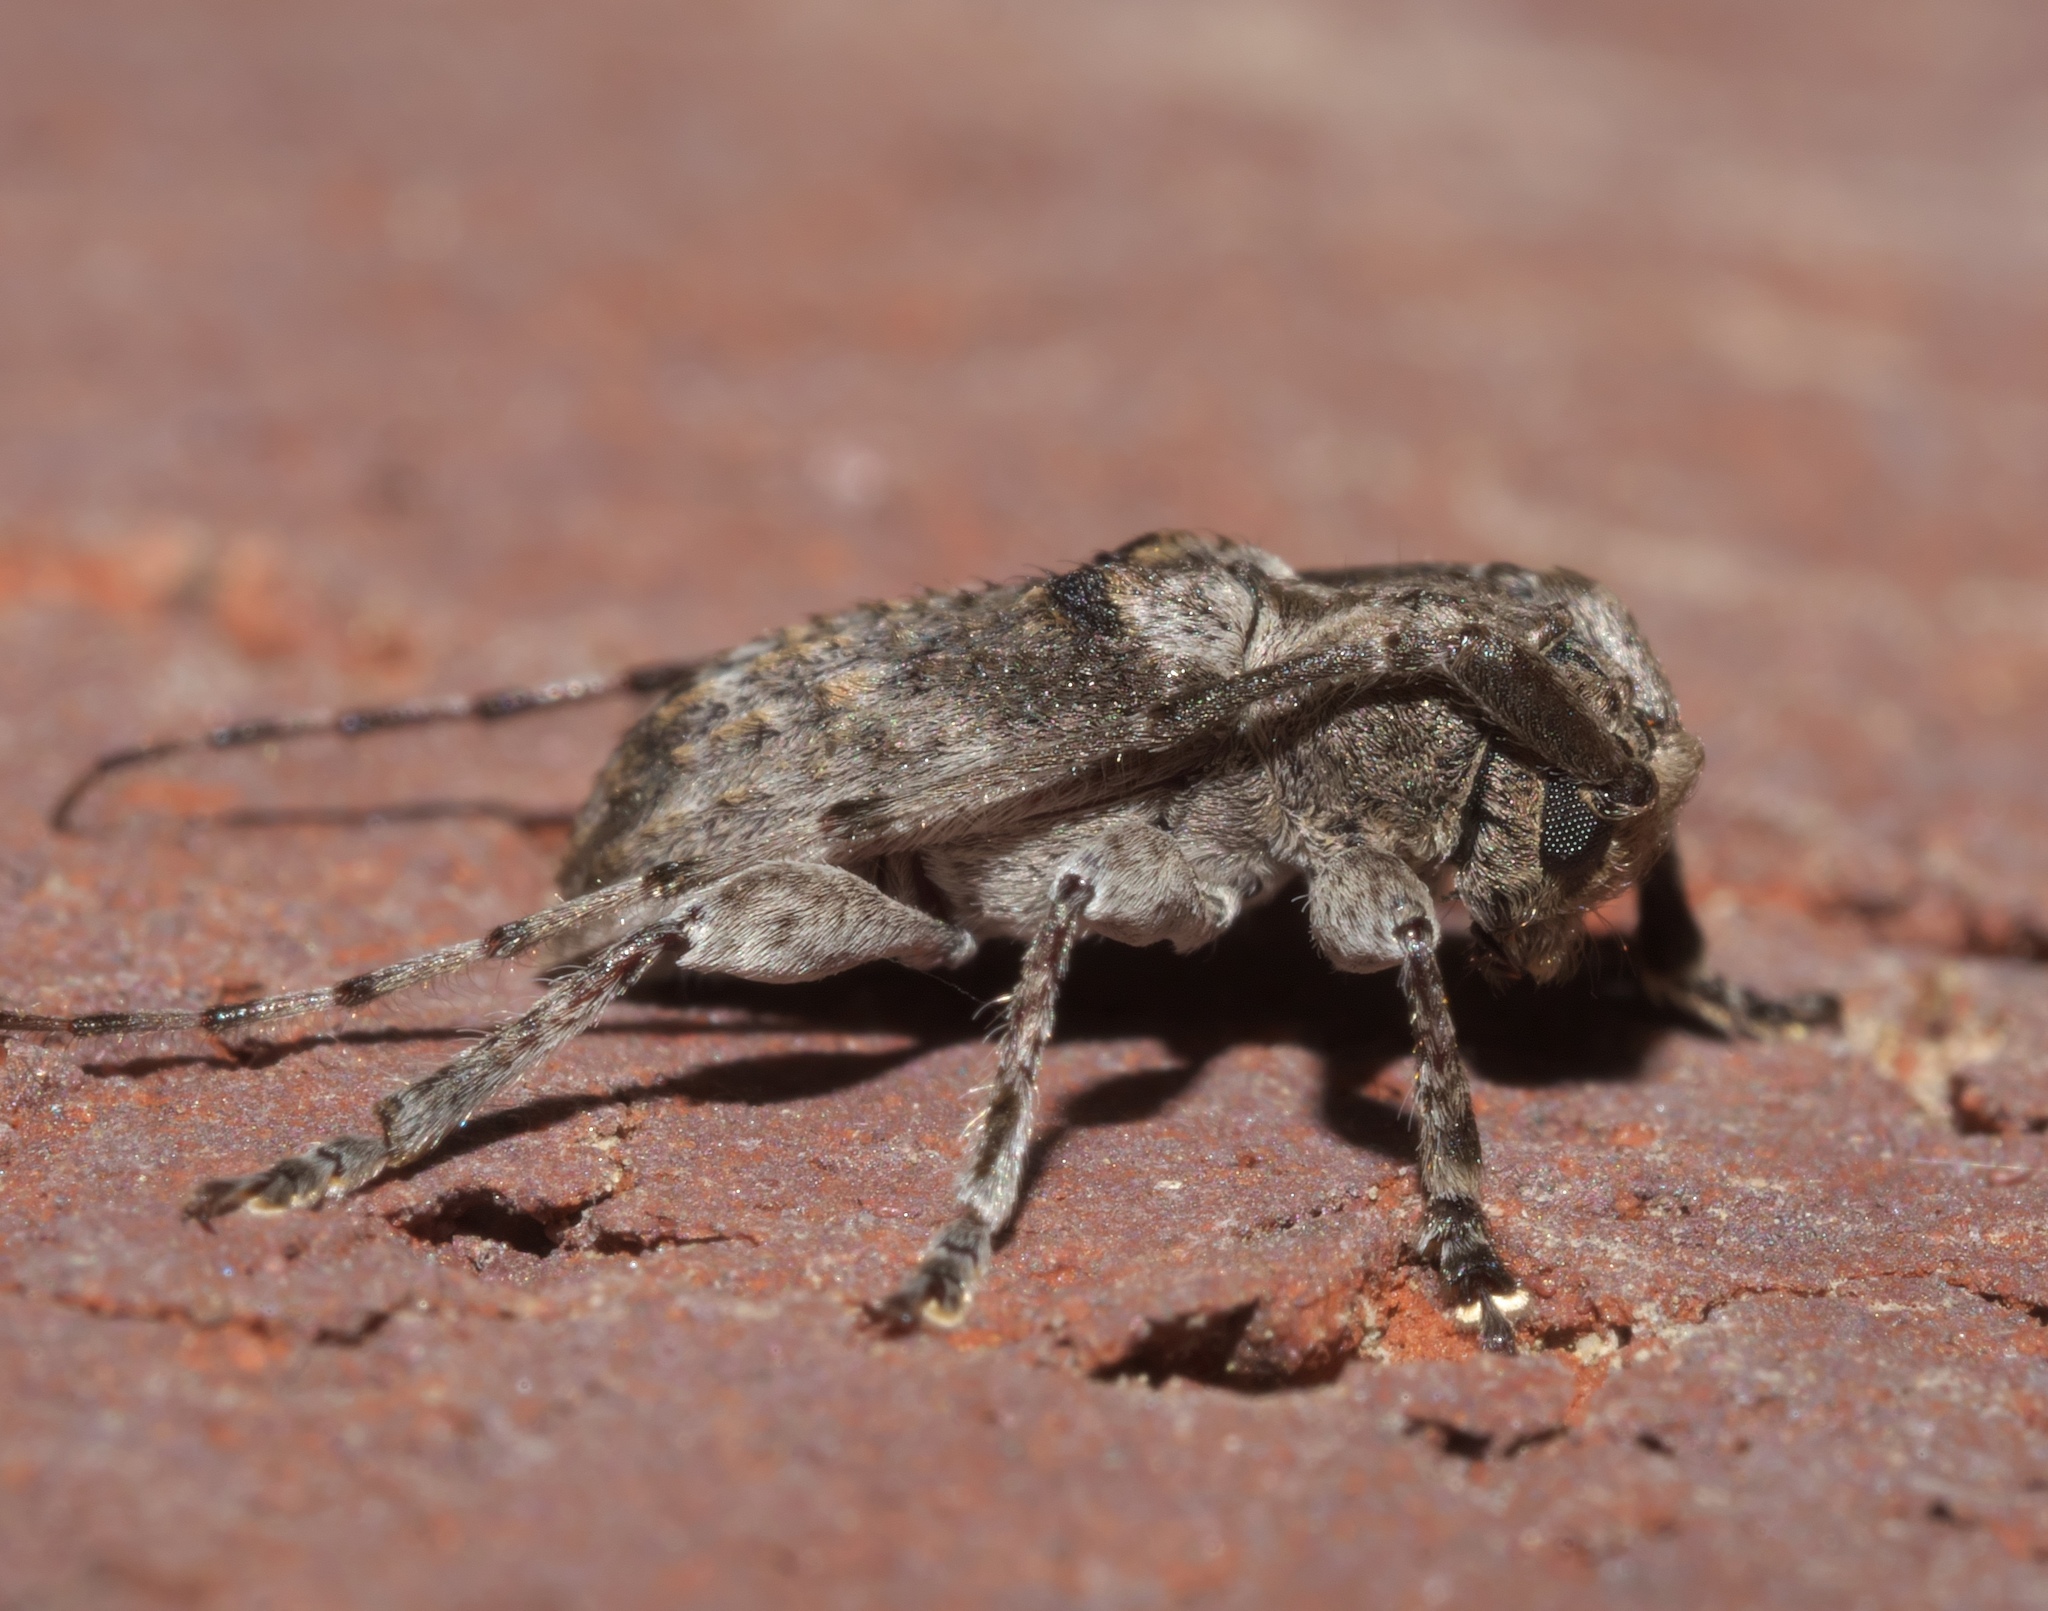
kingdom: Animalia
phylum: Arthropoda
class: Insecta
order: Coleoptera
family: Cerambycidae
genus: Ecyrus
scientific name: Ecyrus dasycerus
